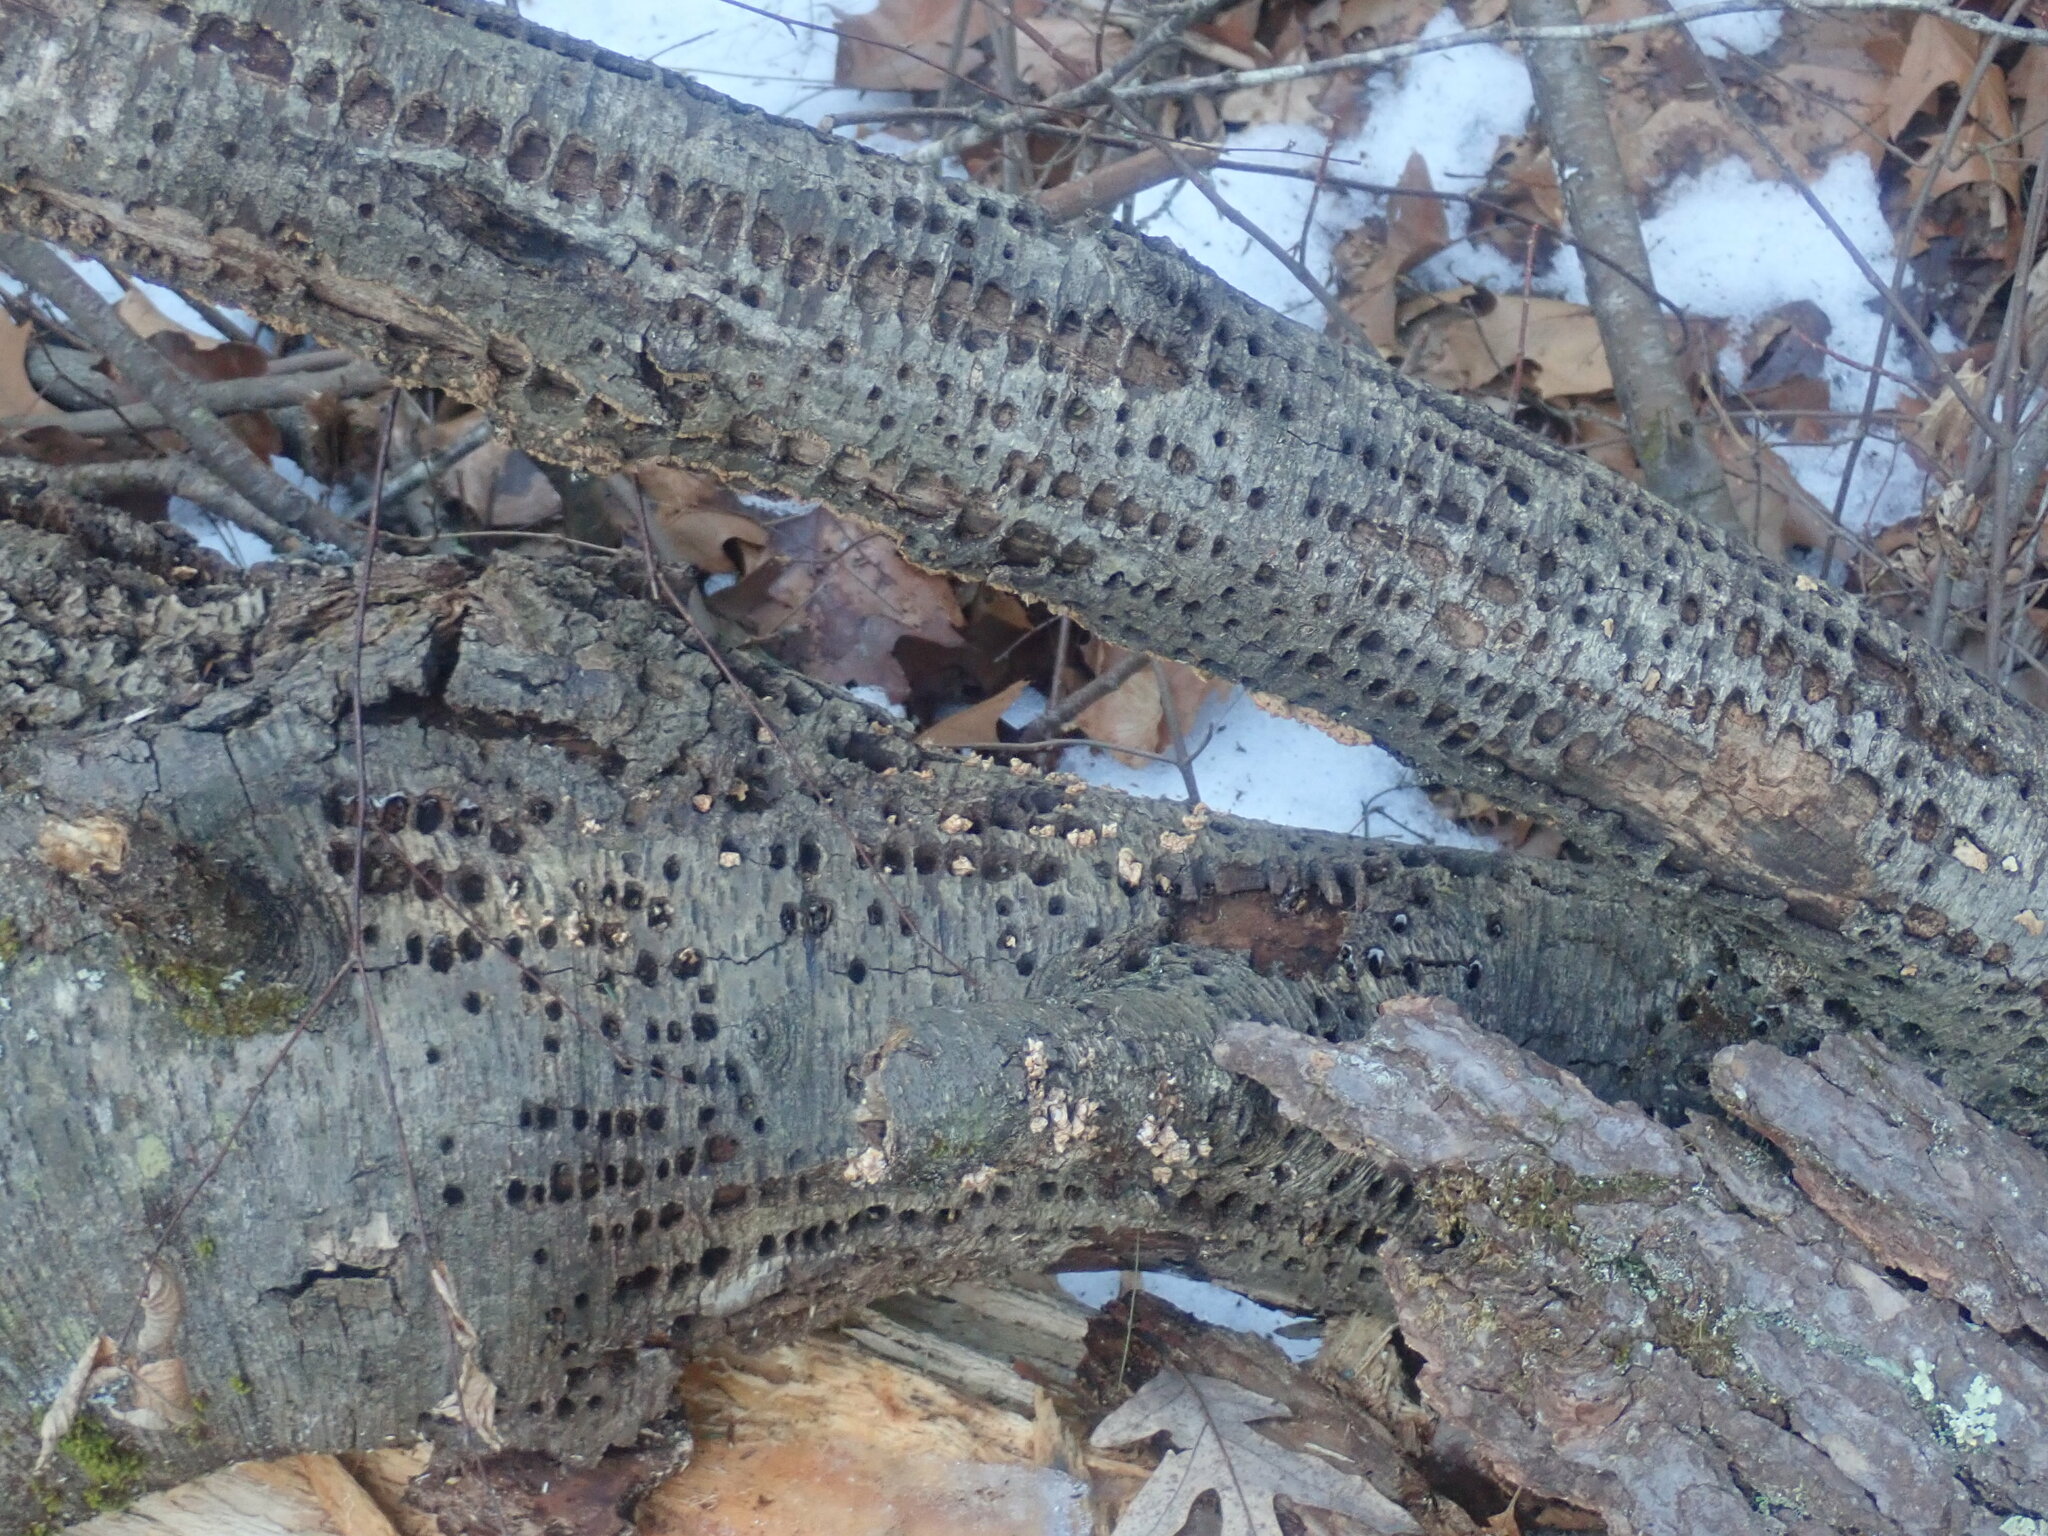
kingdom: Animalia
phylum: Chordata
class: Aves
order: Piciformes
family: Picidae
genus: Sphyrapicus
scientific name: Sphyrapicus varius
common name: Yellow-bellied sapsucker
